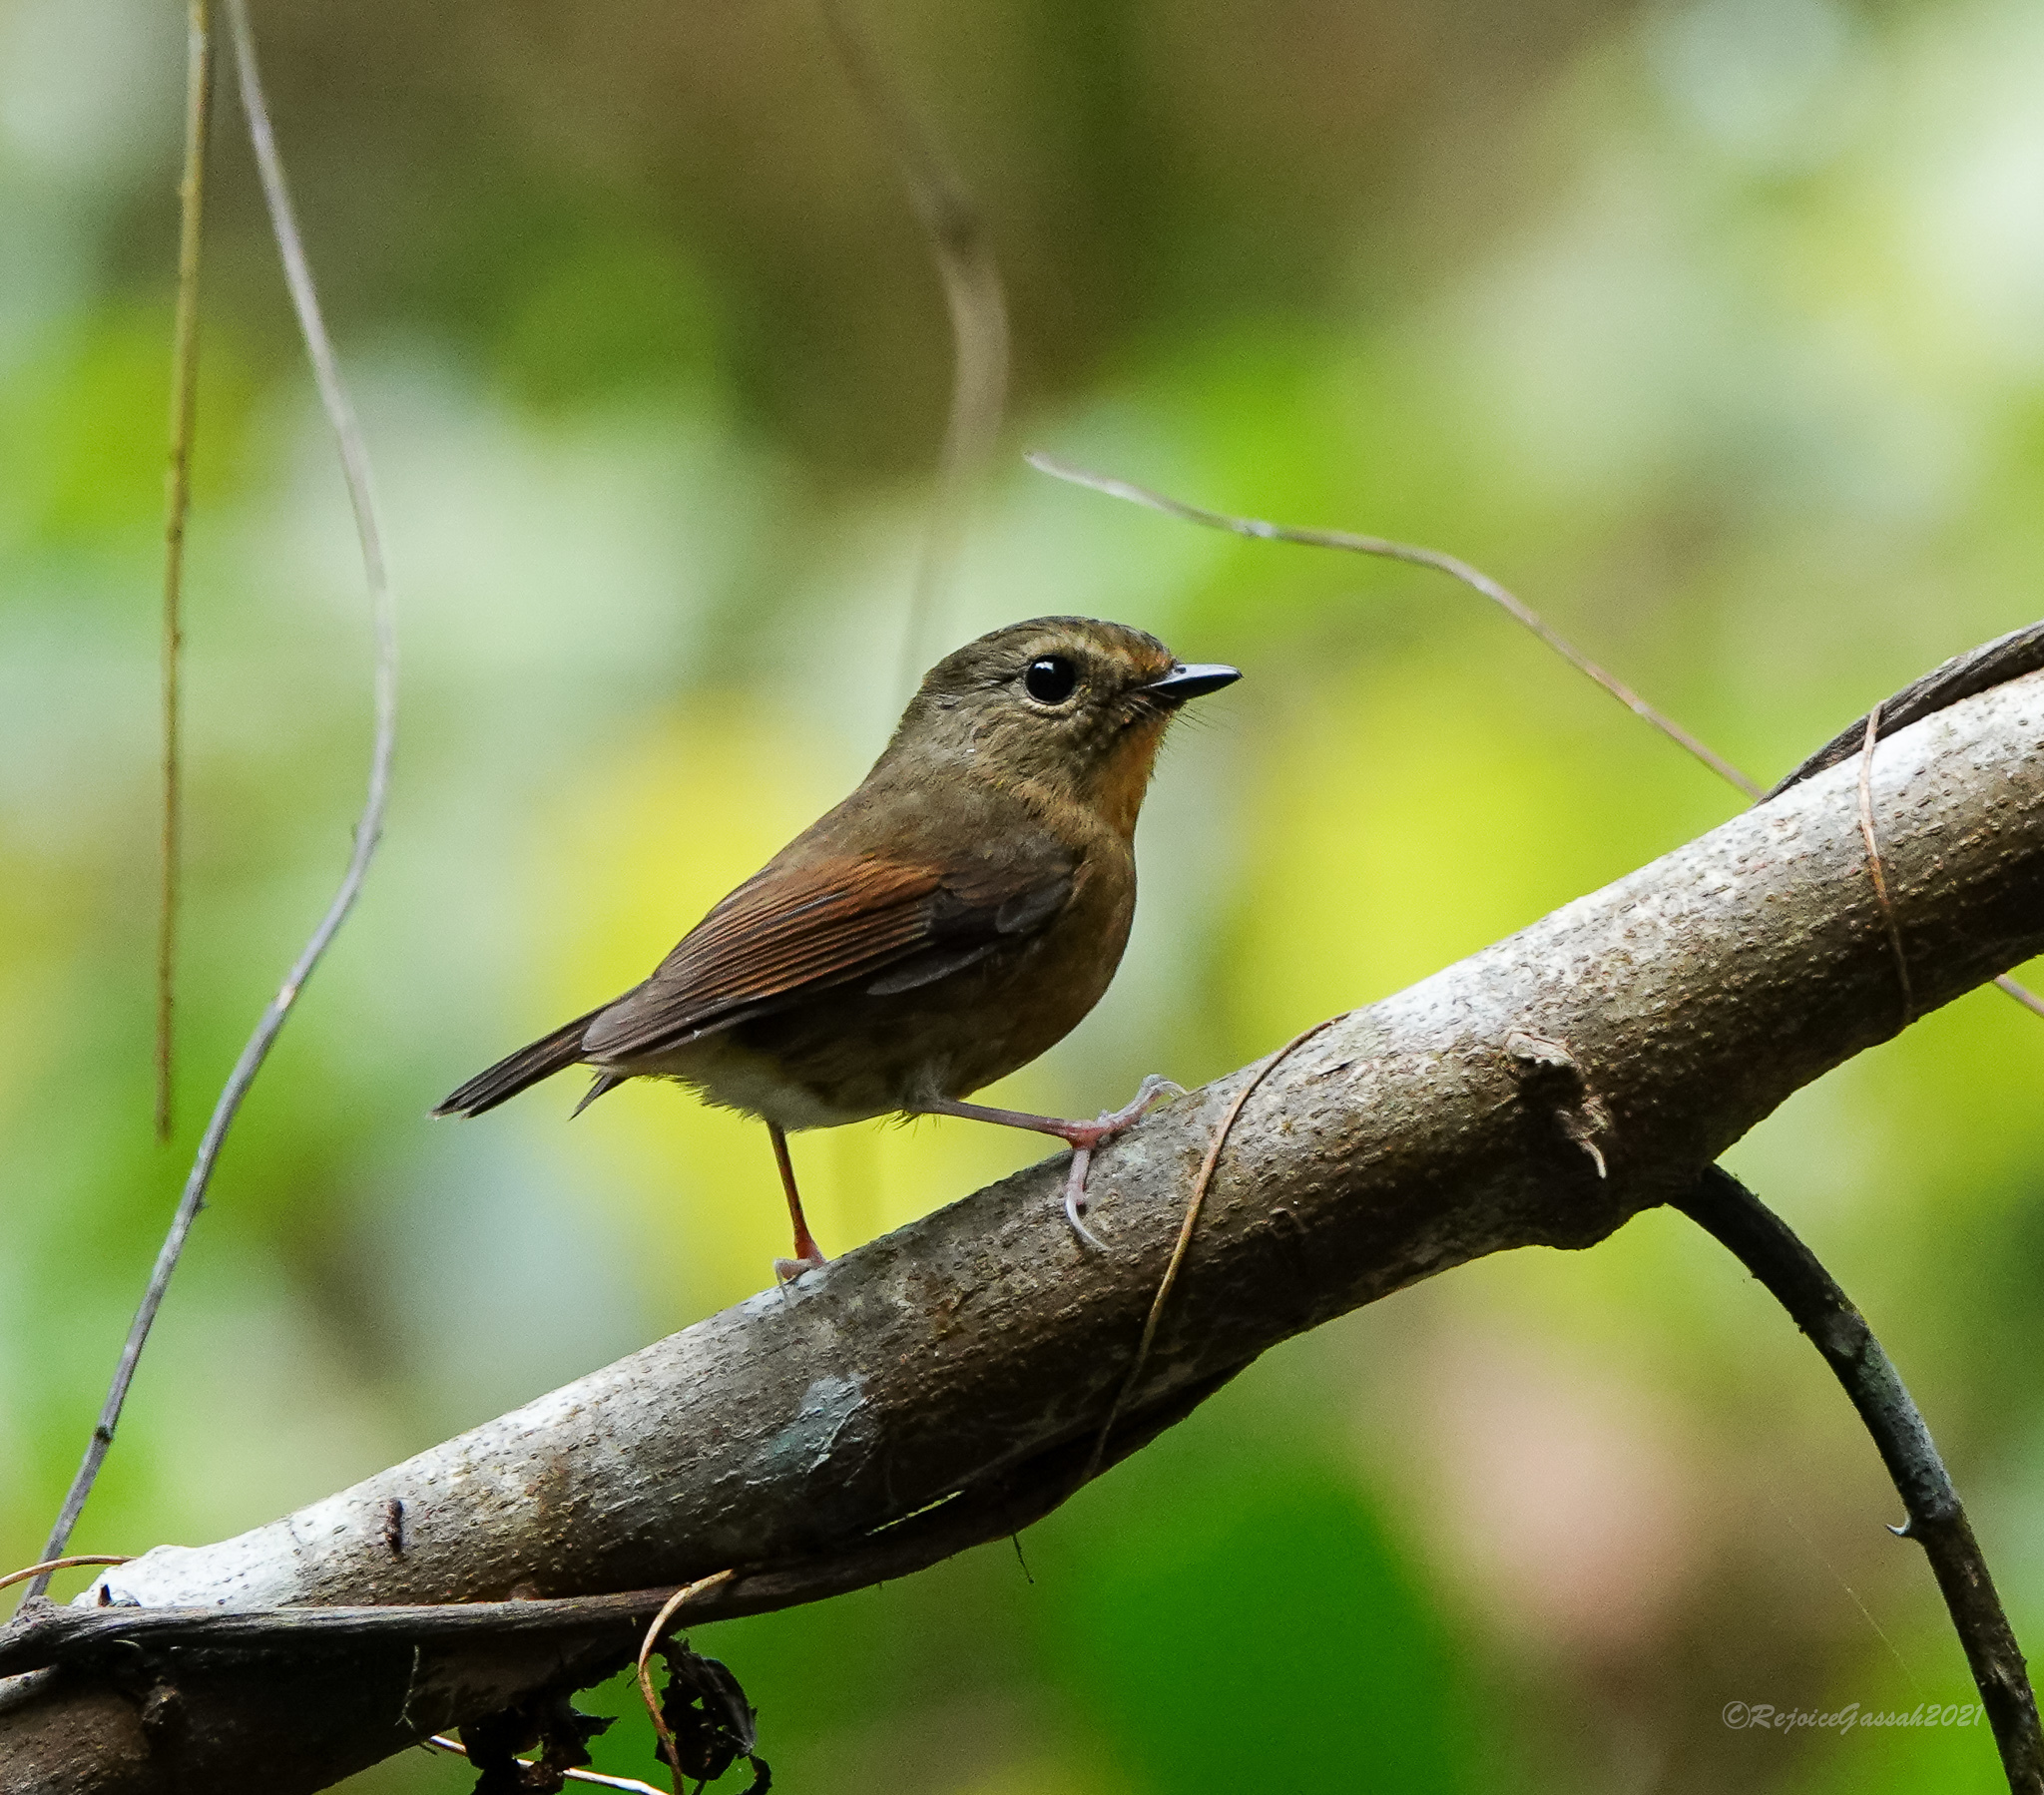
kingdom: Animalia
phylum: Chordata
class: Aves
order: Passeriformes
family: Muscicapidae
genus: Ficedula
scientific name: Ficedula hyperythra
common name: Snowy-browed flycatcher
